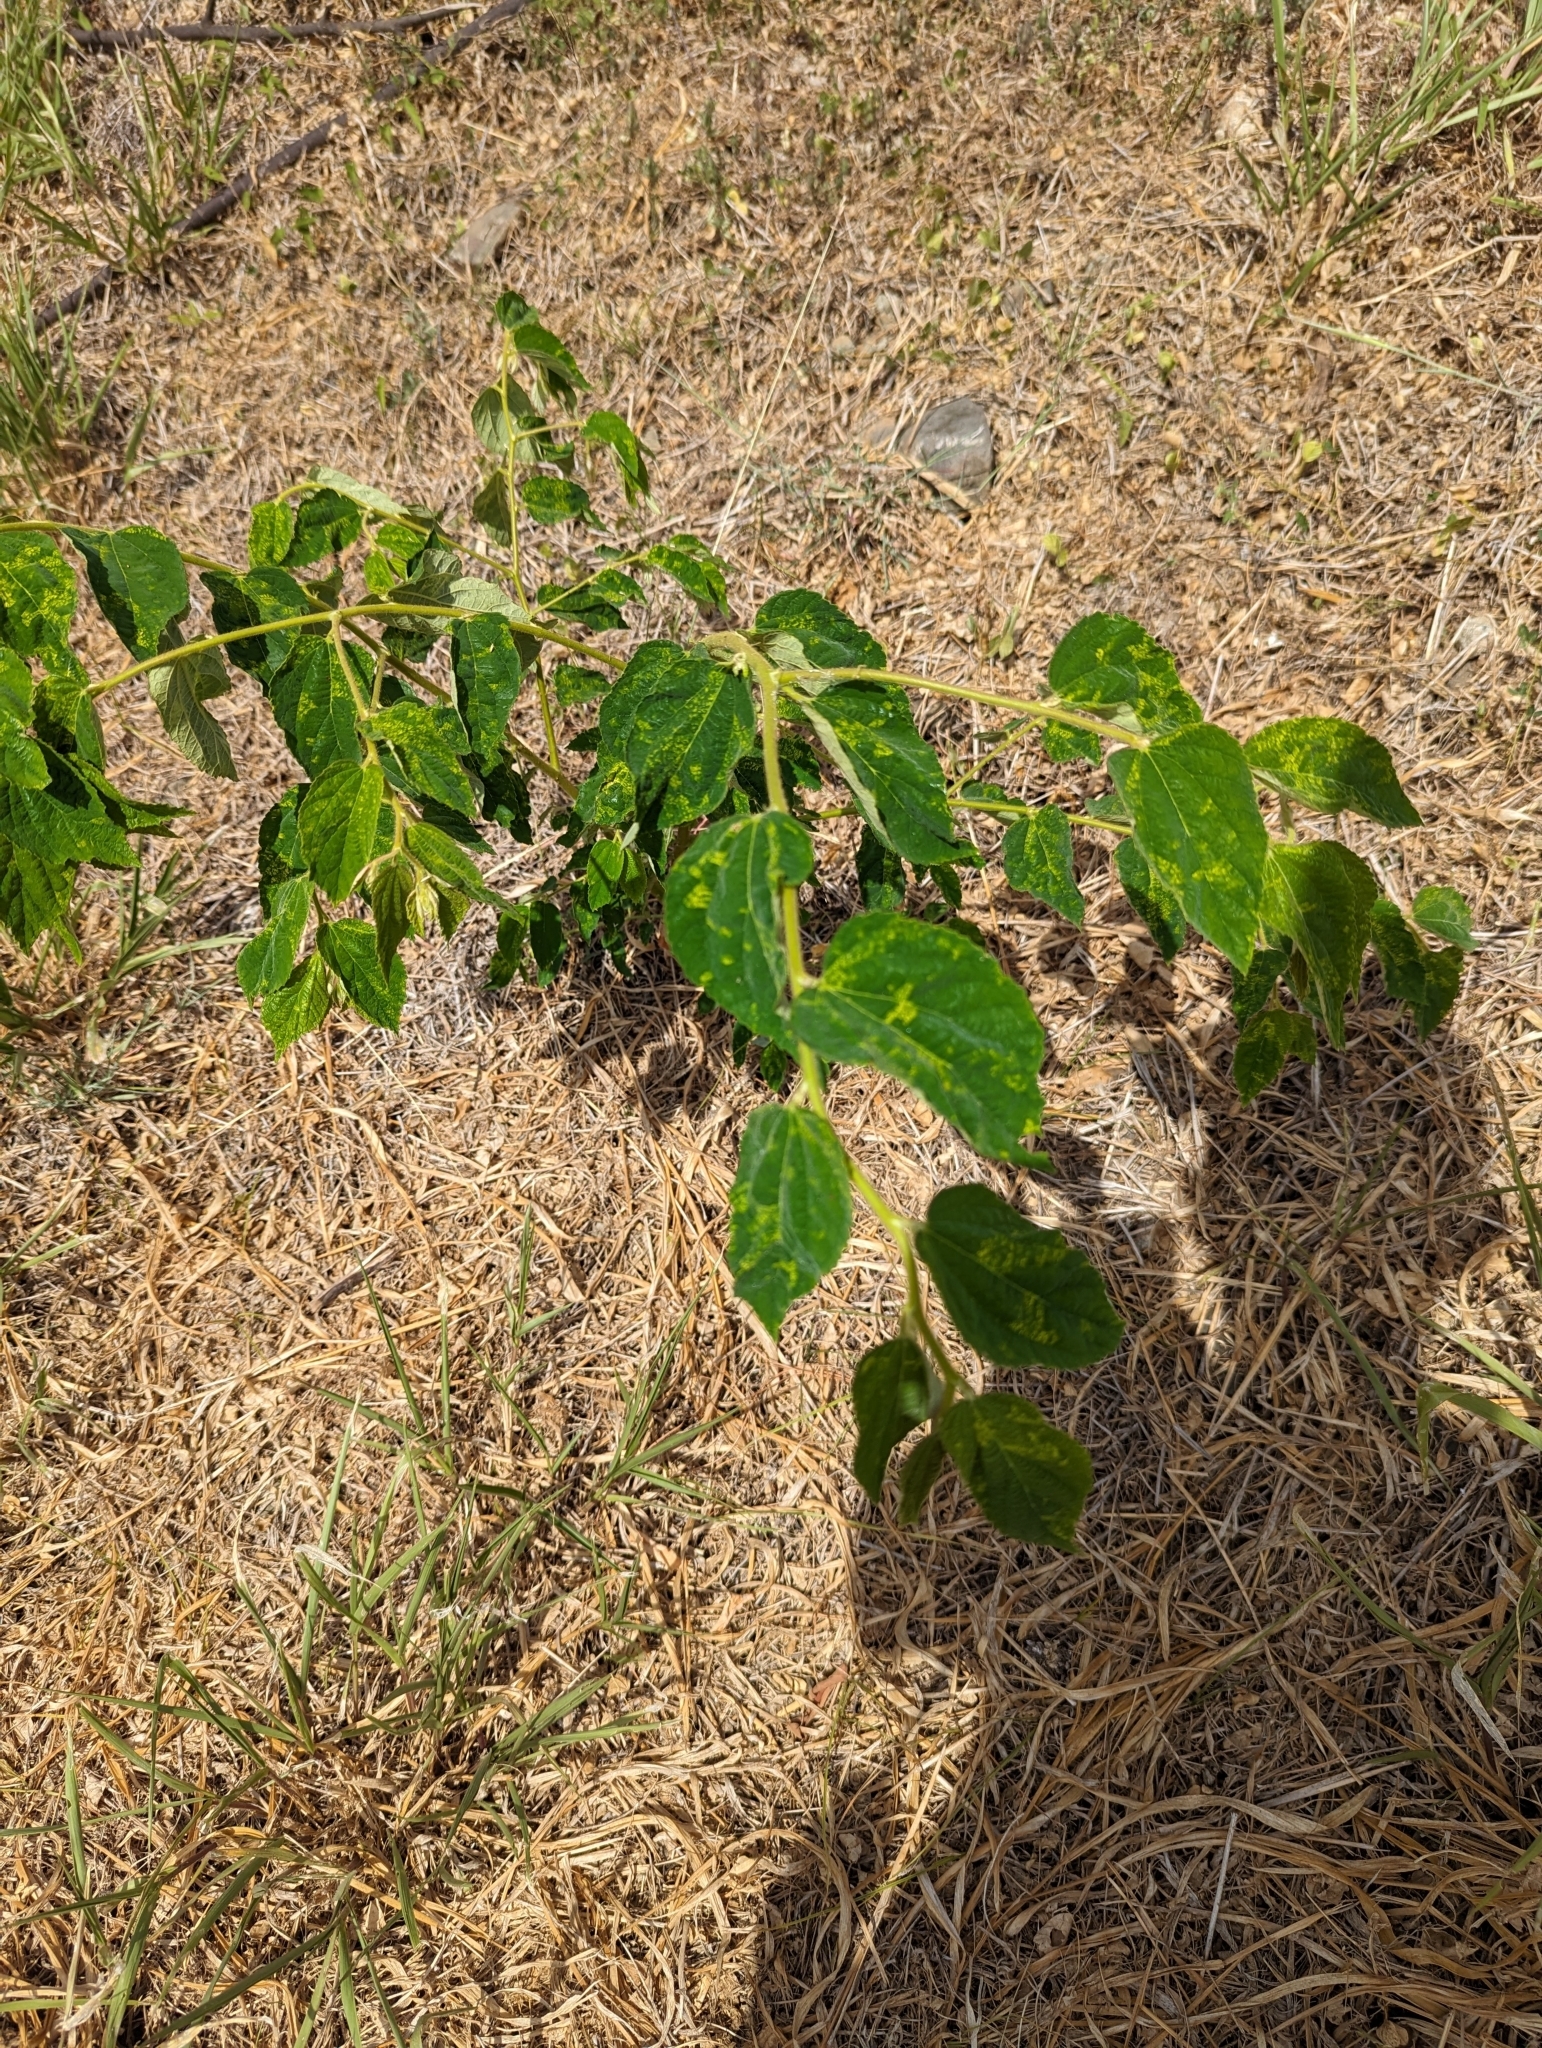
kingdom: Plantae
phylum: Tracheophyta
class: Magnoliopsida
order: Malvales
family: Muntingiaceae
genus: Muntingia
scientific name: Muntingia calabura
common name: Strawberrytree
